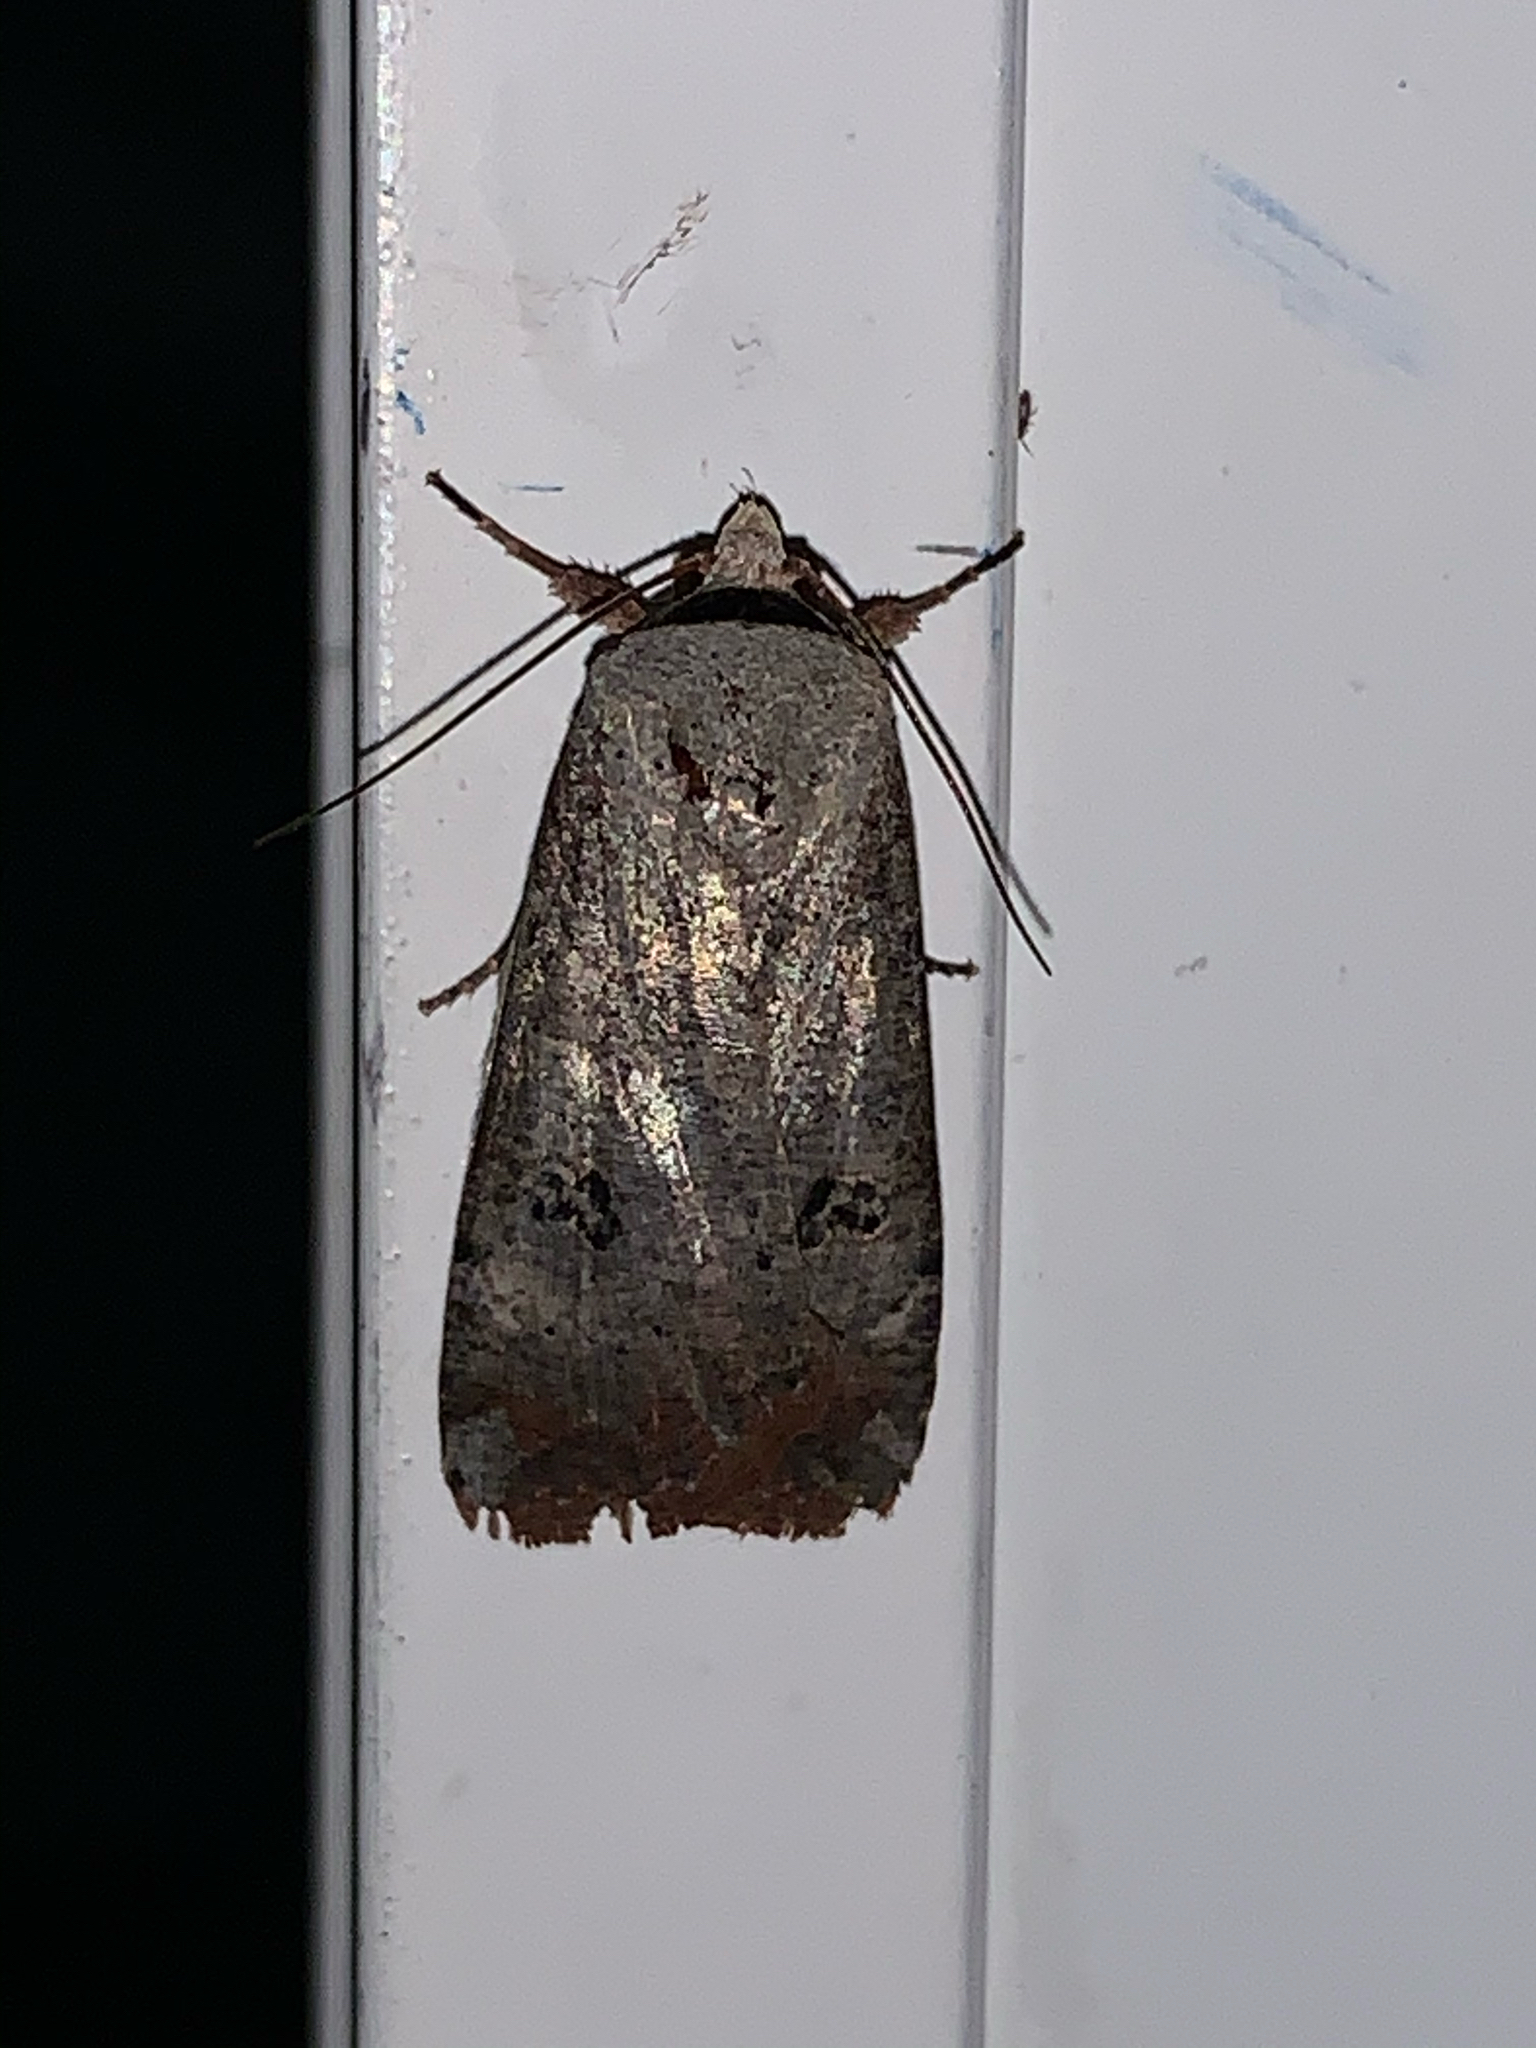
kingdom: Animalia
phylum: Arthropoda
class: Insecta
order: Lepidoptera
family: Noctuidae
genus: Anicla
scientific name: Anicla infecta
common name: Green cutworm
